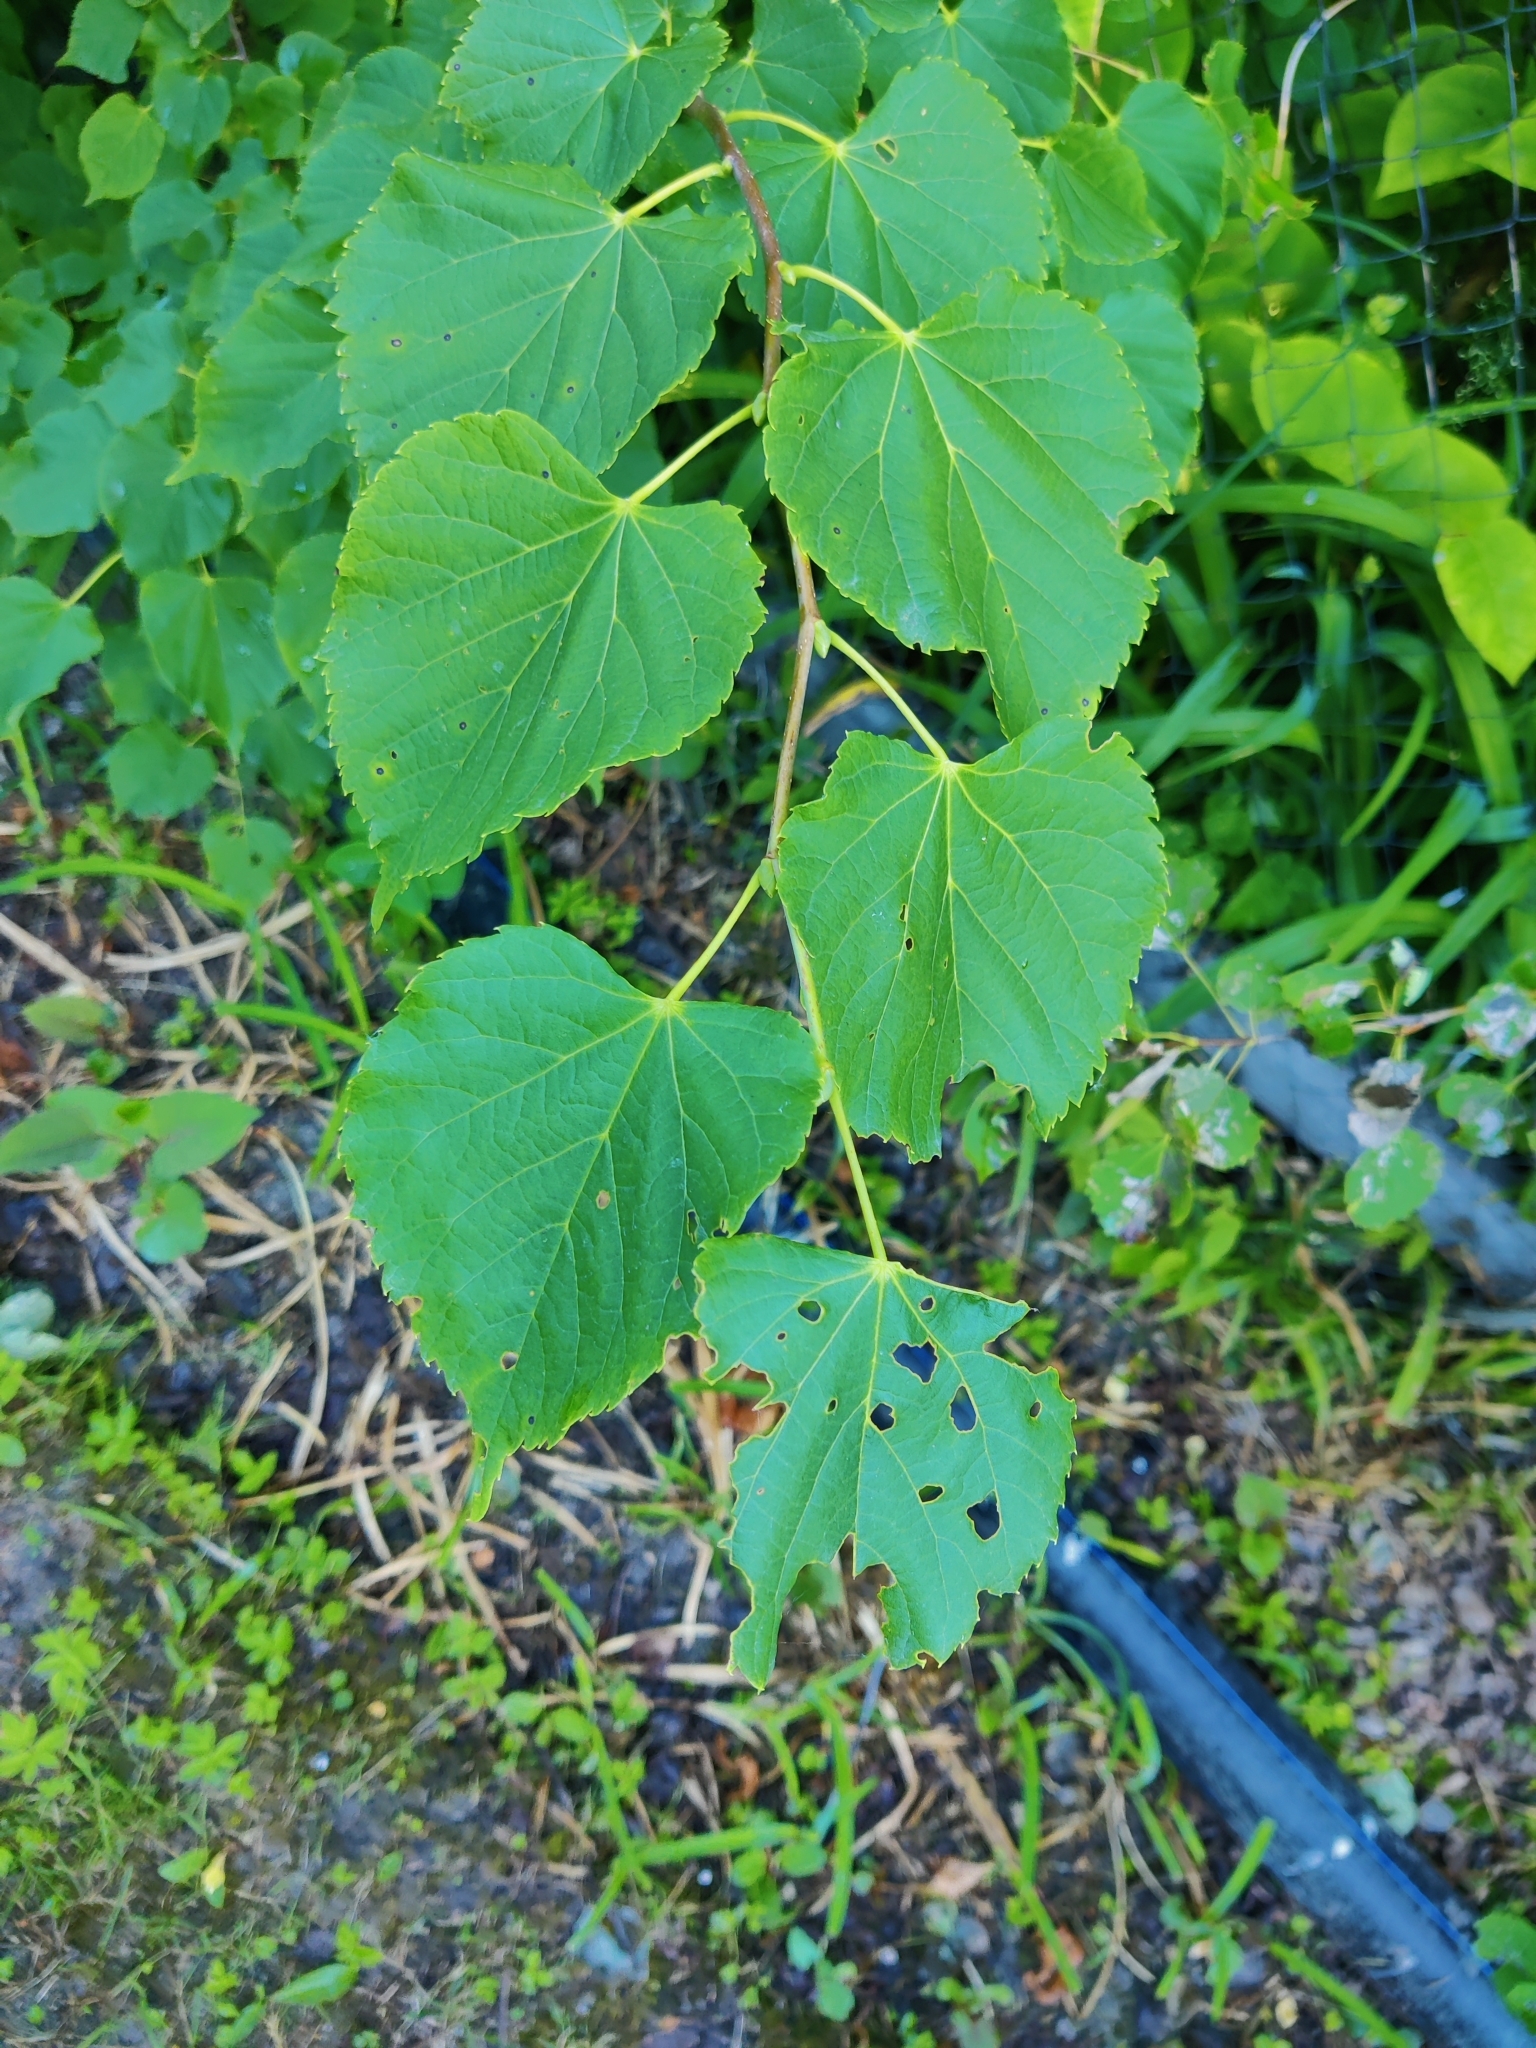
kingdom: Plantae
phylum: Tracheophyta
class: Magnoliopsida
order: Malvales
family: Malvaceae
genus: Tilia
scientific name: Tilia cordata
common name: Small-leaved lime
